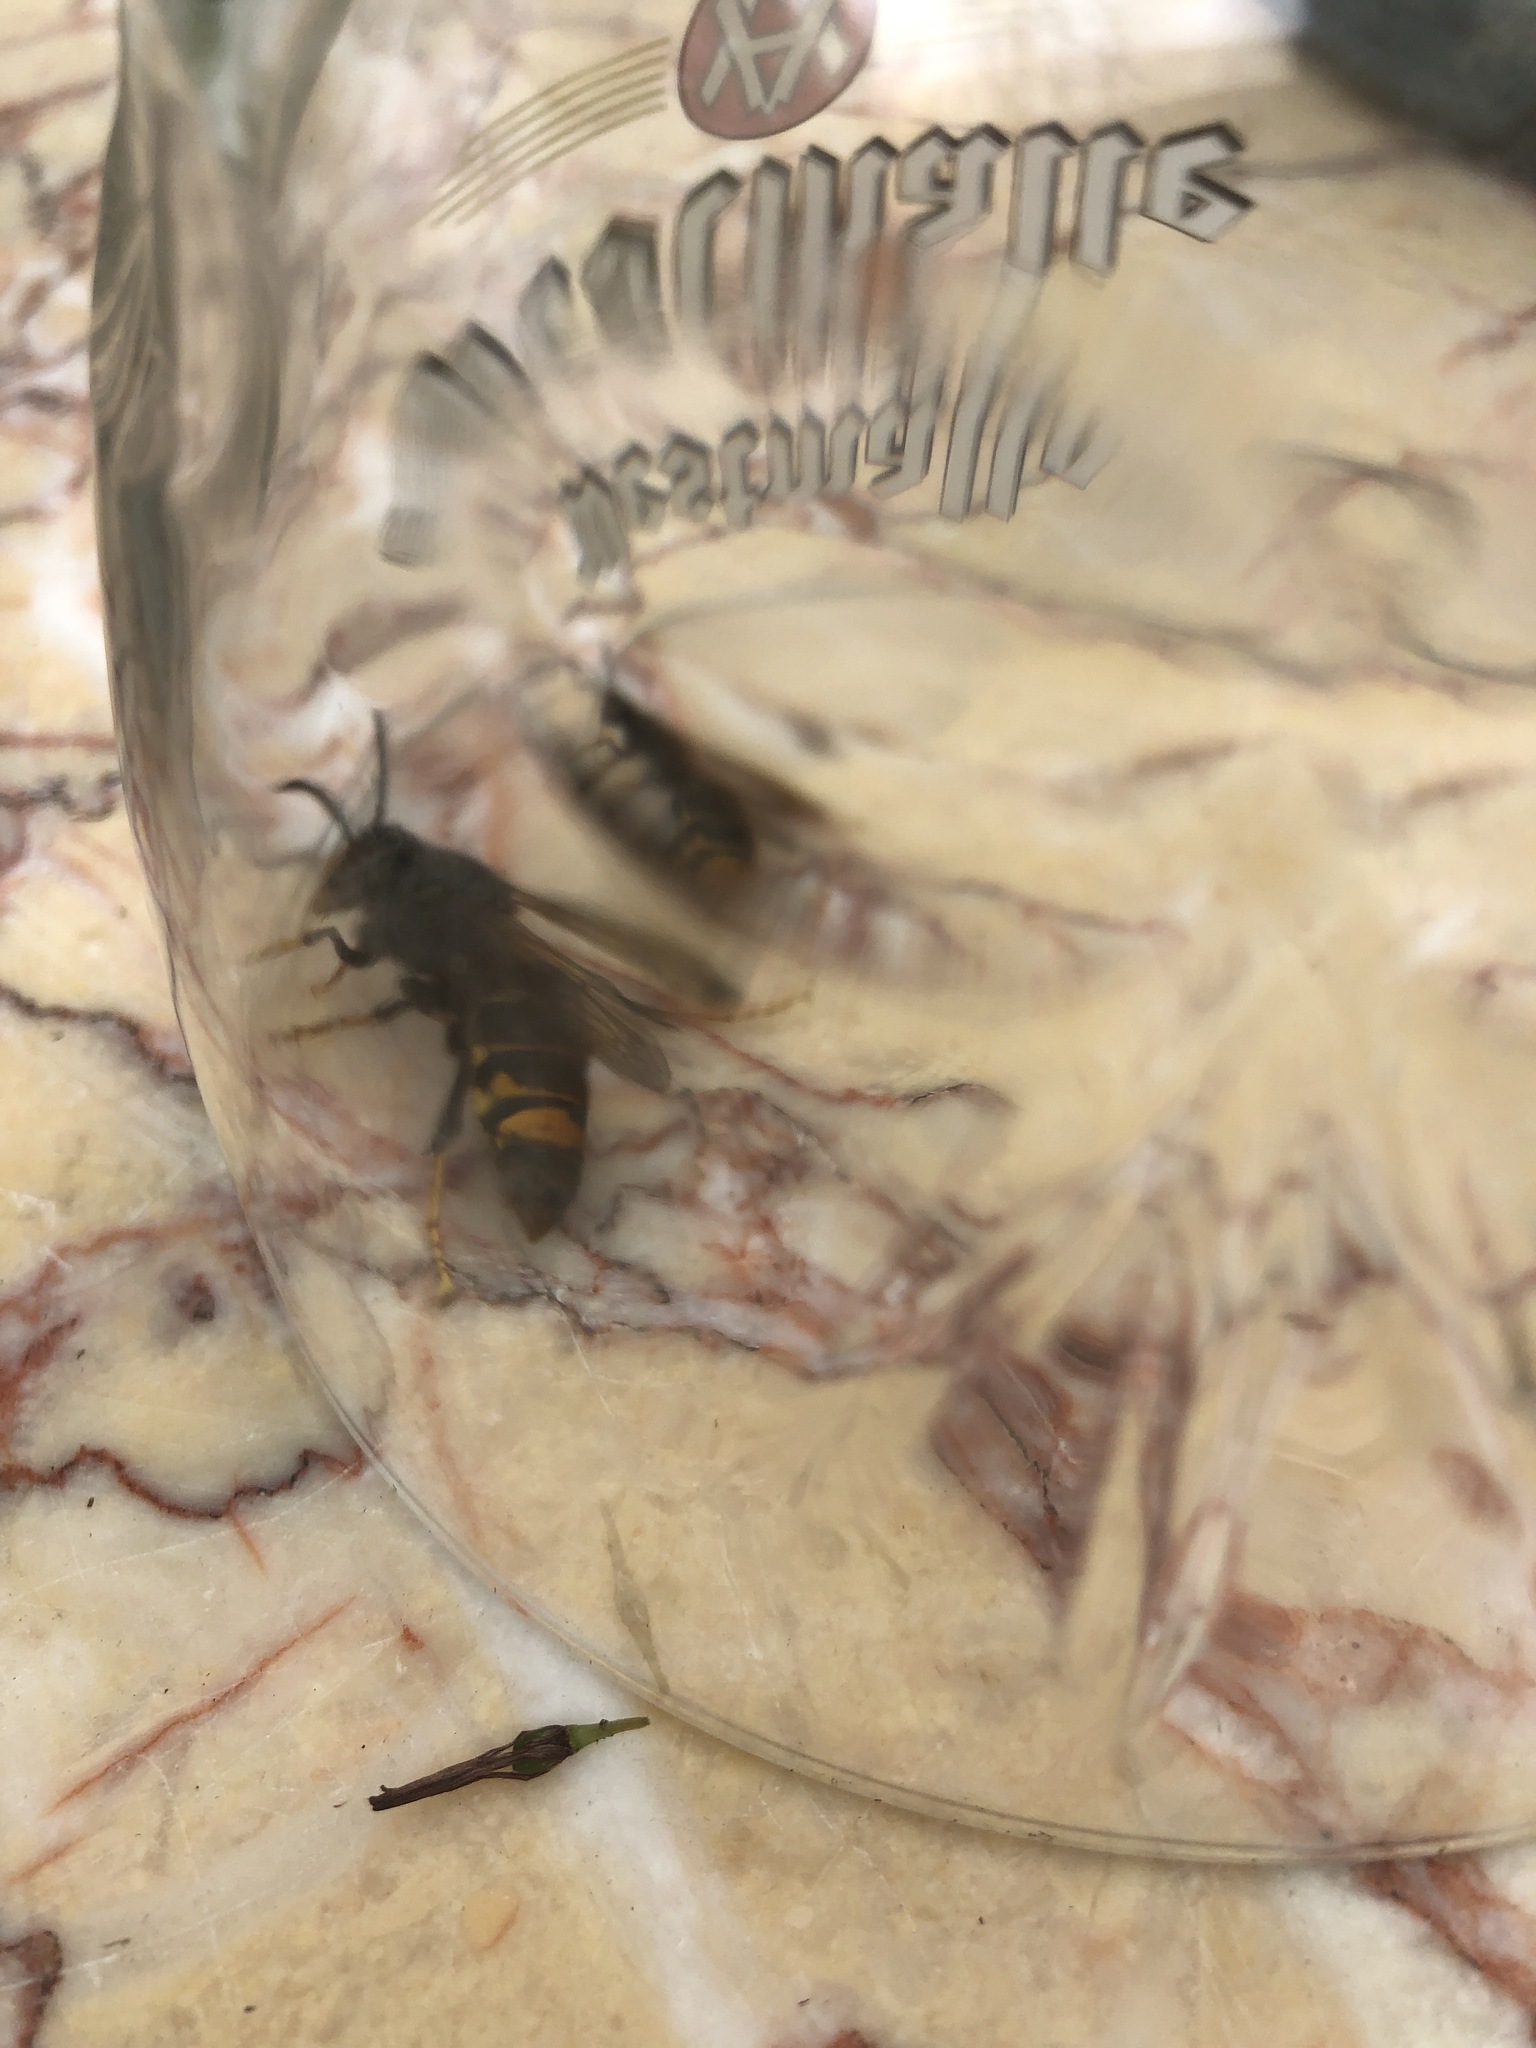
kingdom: Animalia
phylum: Arthropoda
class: Insecta
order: Hymenoptera
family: Vespidae
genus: Vespa
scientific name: Vespa velutina
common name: Asian hornet
